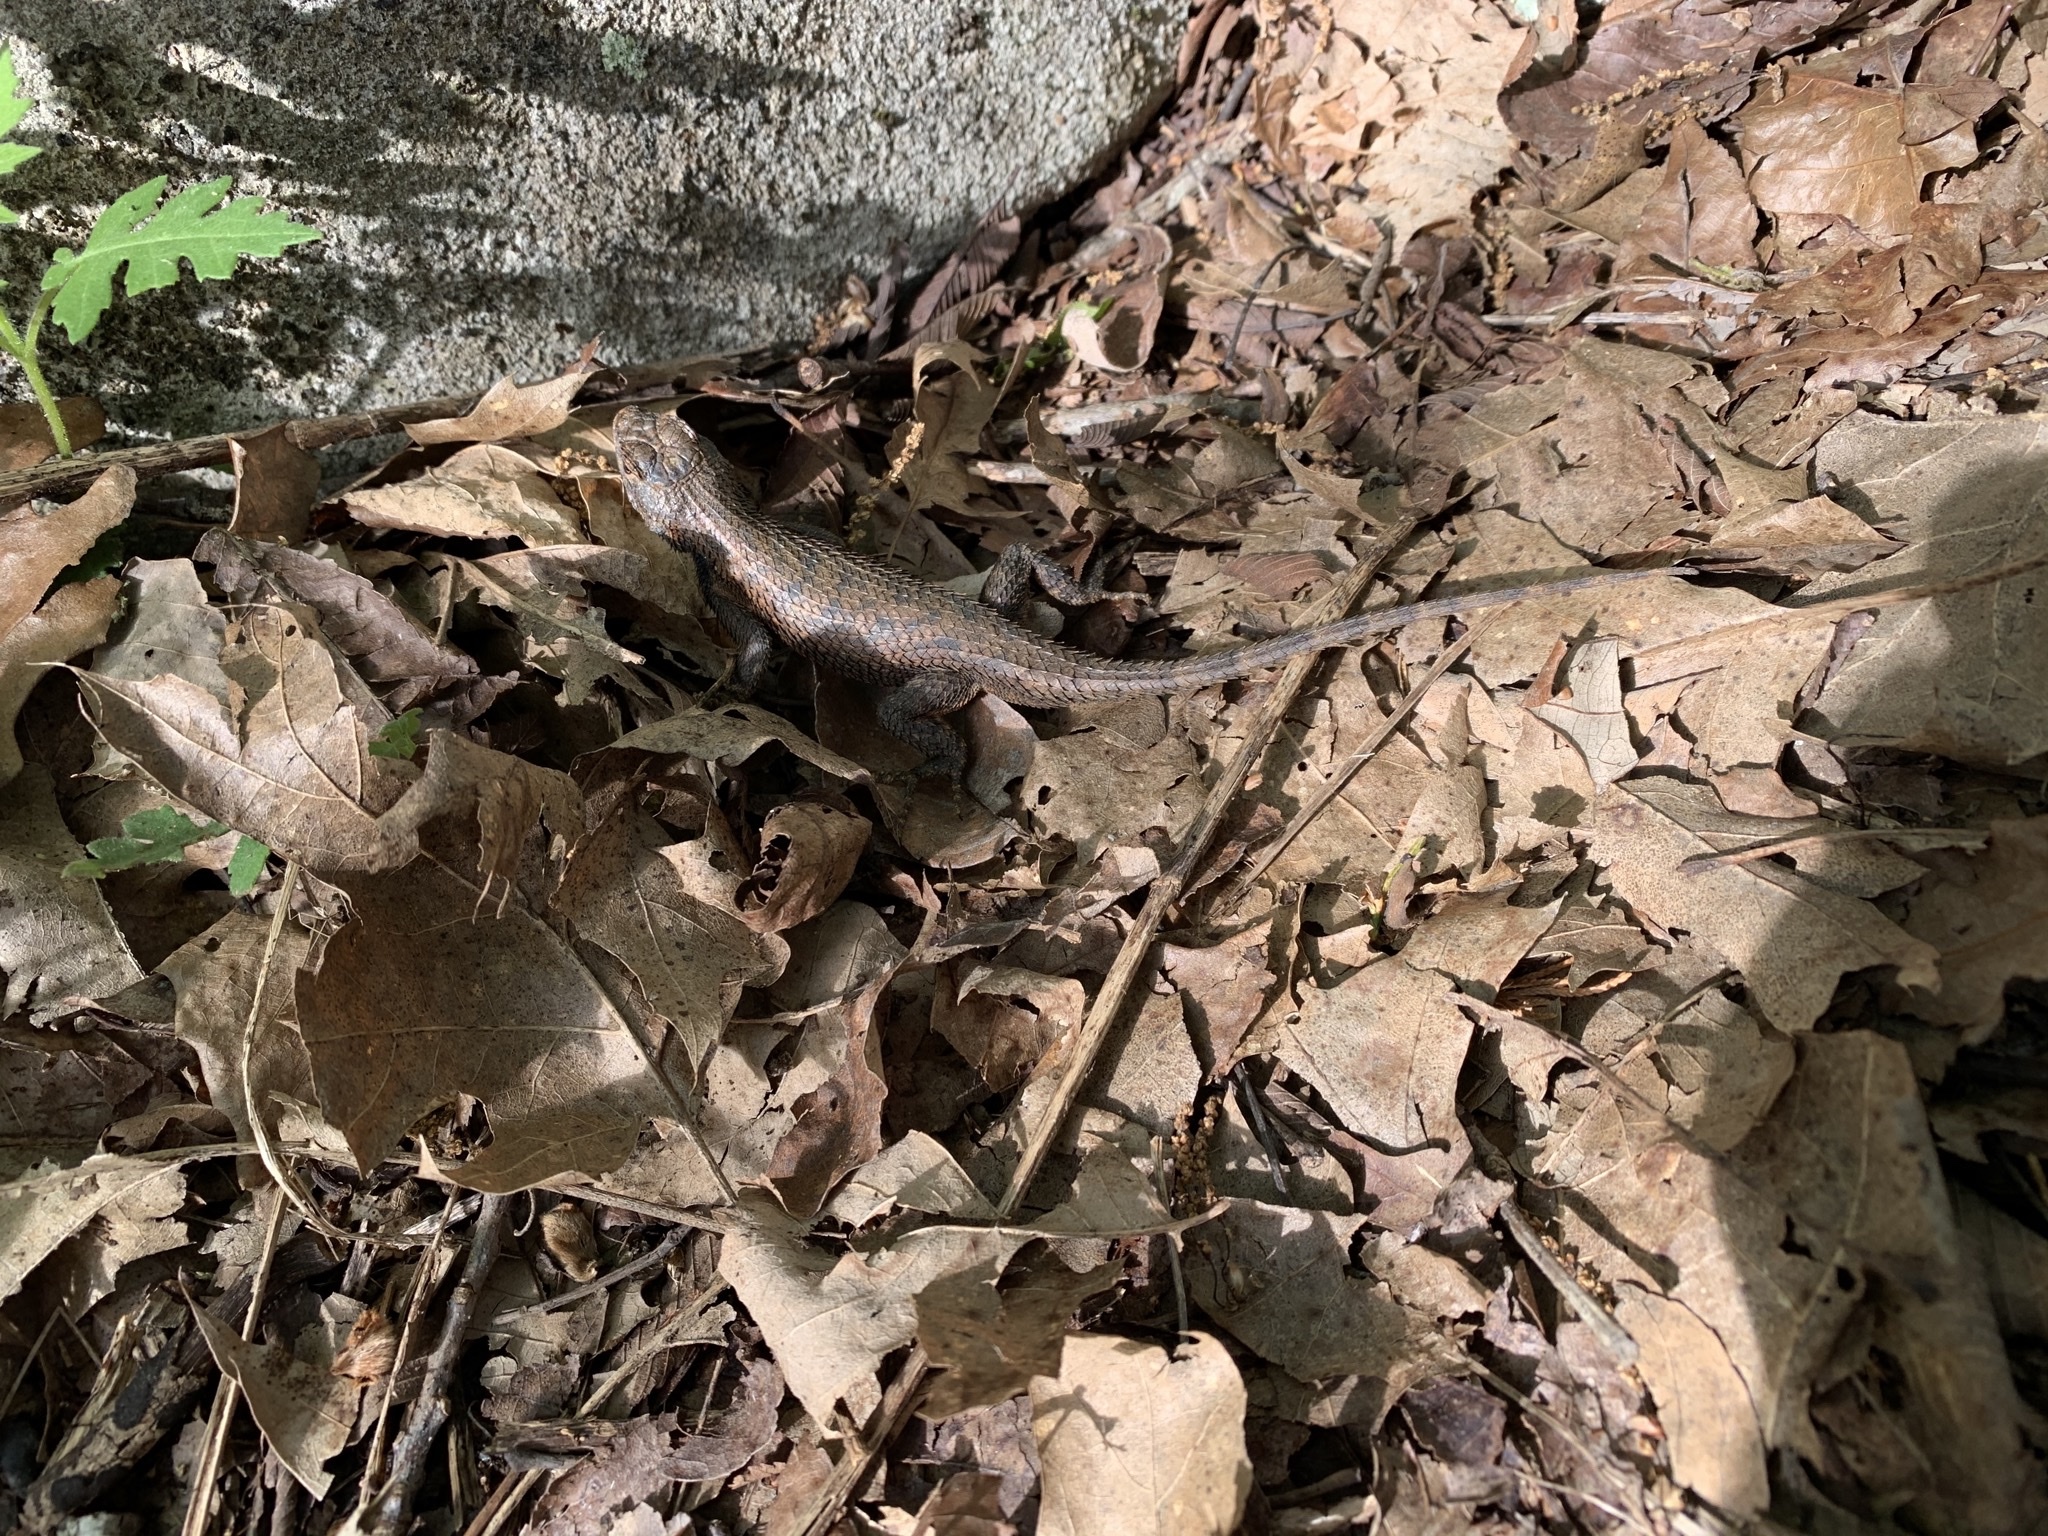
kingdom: Animalia
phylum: Chordata
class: Squamata
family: Phrynosomatidae
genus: Sceloporus
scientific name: Sceloporus undulatus
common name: Eastern fence lizard
